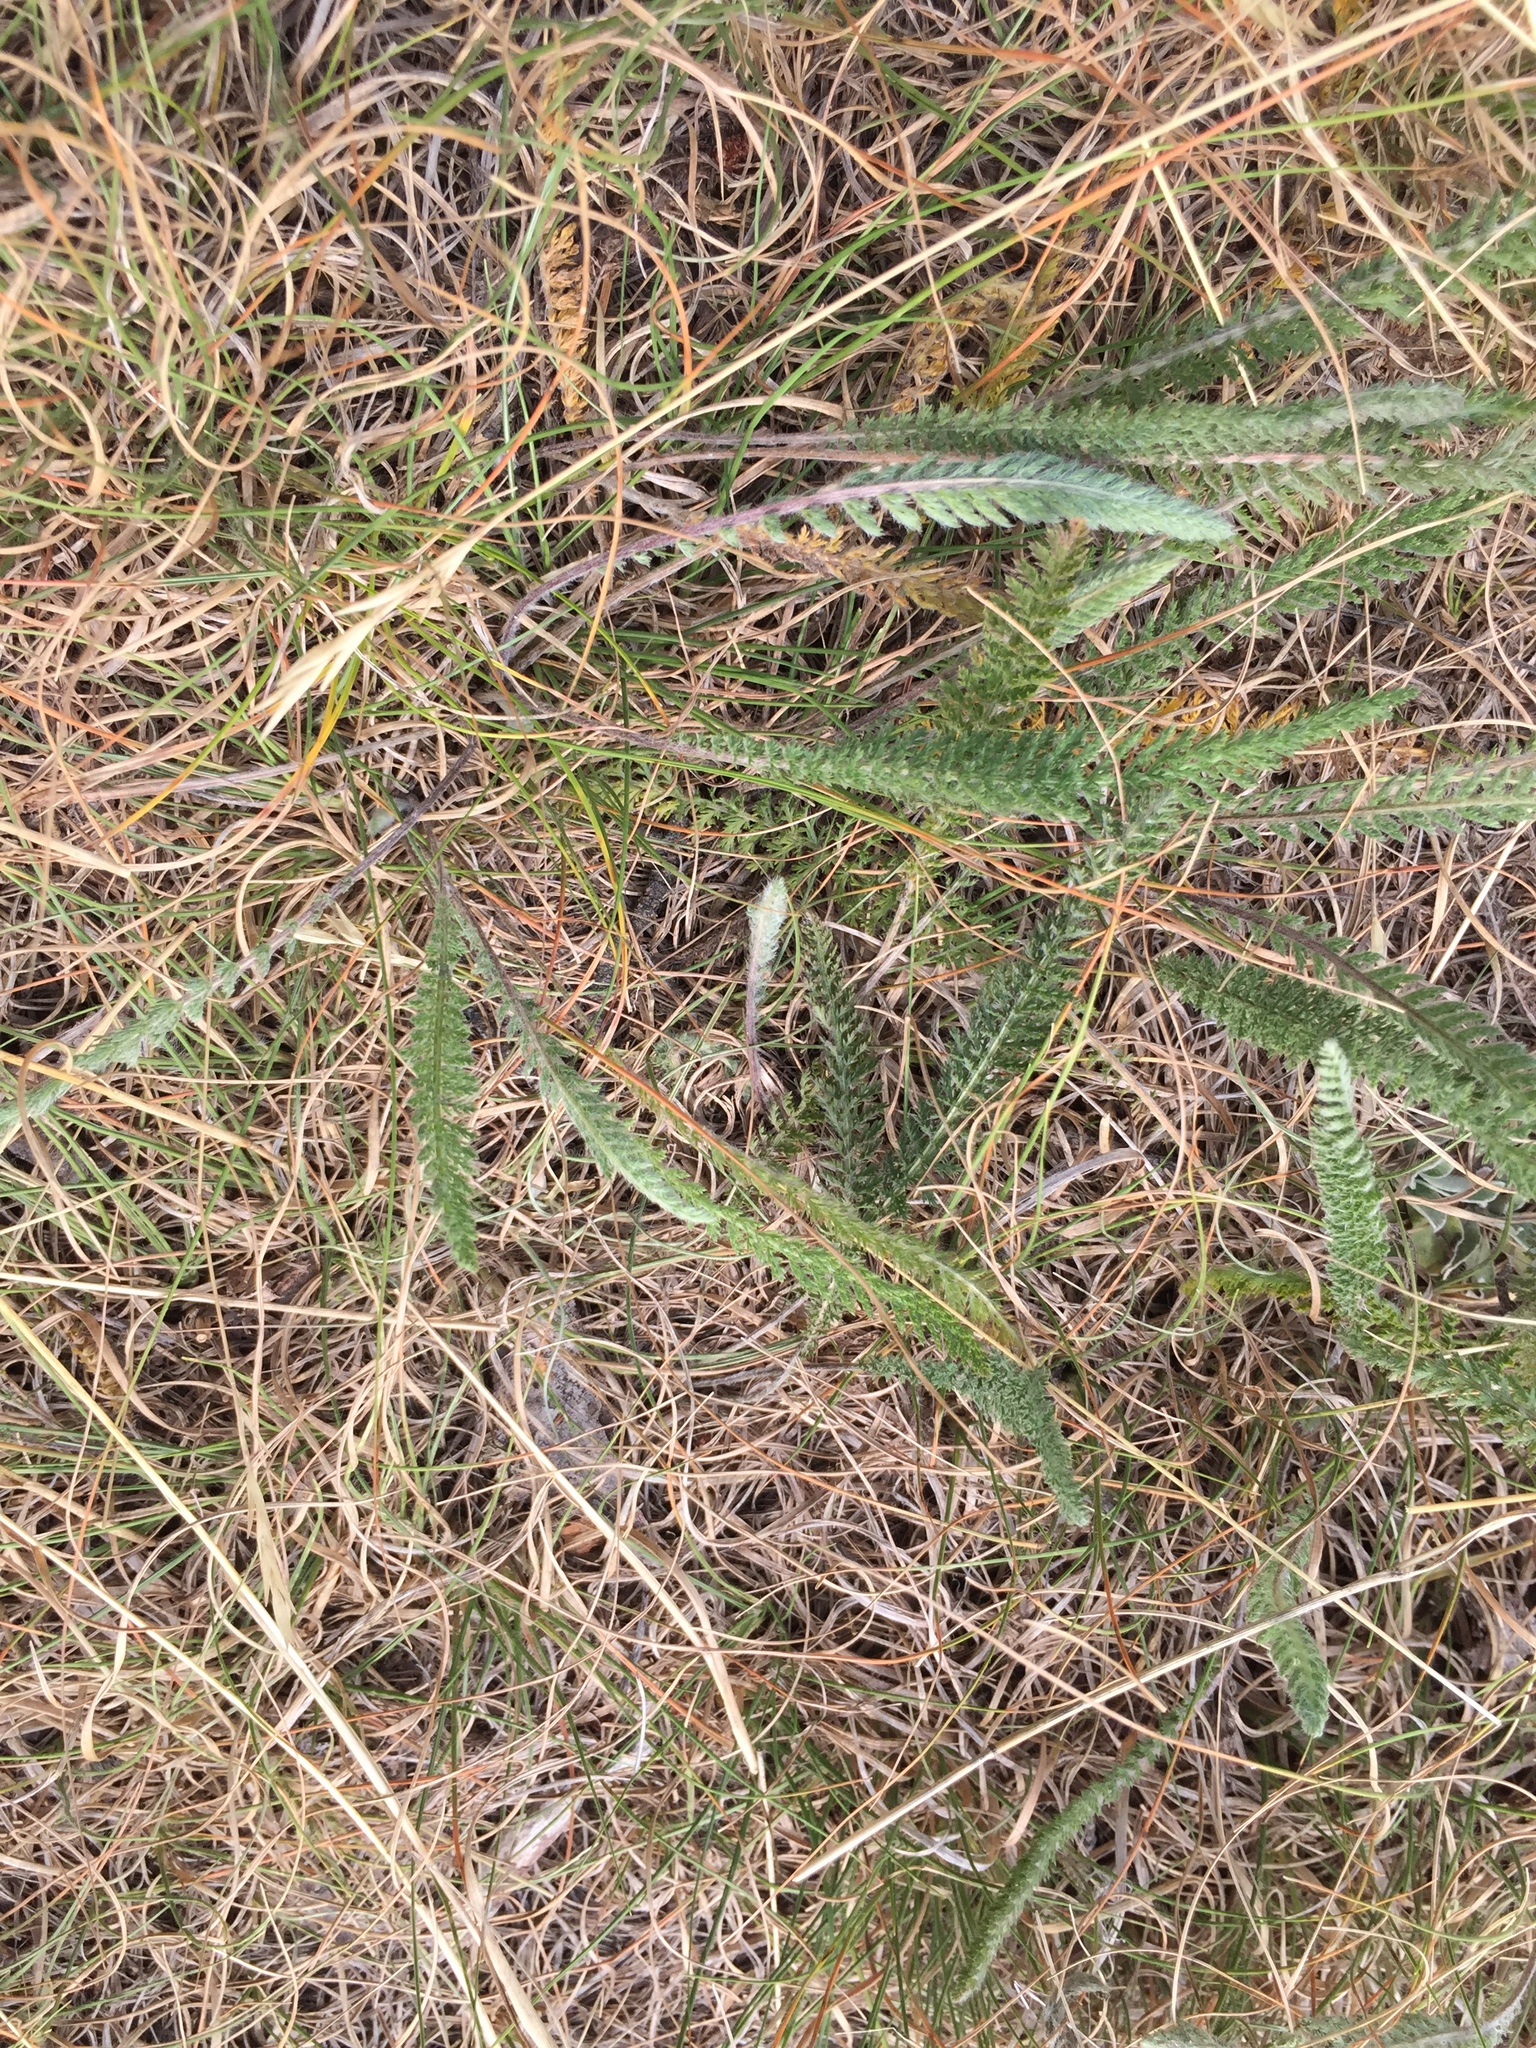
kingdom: Plantae
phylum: Tracheophyta
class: Magnoliopsida
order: Asterales
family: Asteraceae
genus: Achillea
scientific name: Achillea millefolium
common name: Yarrow
